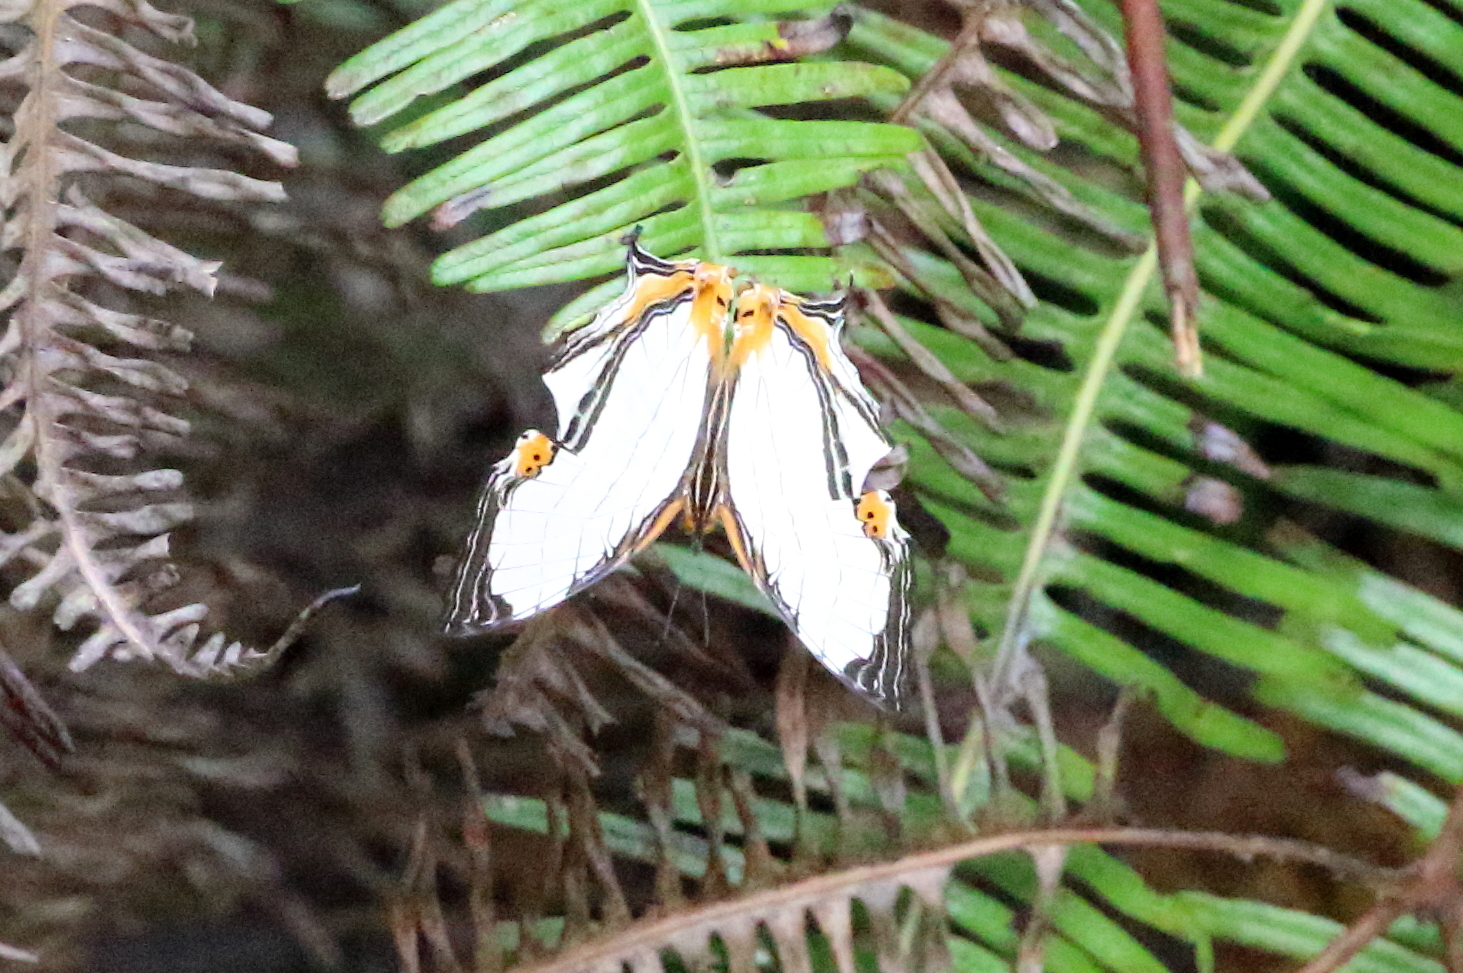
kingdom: Animalia
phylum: Arthropoda
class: Insecta
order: Lepidoptera
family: Nymphalidae
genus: Cyrestis
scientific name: Cyrestis nivea
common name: Straight line mapwing
